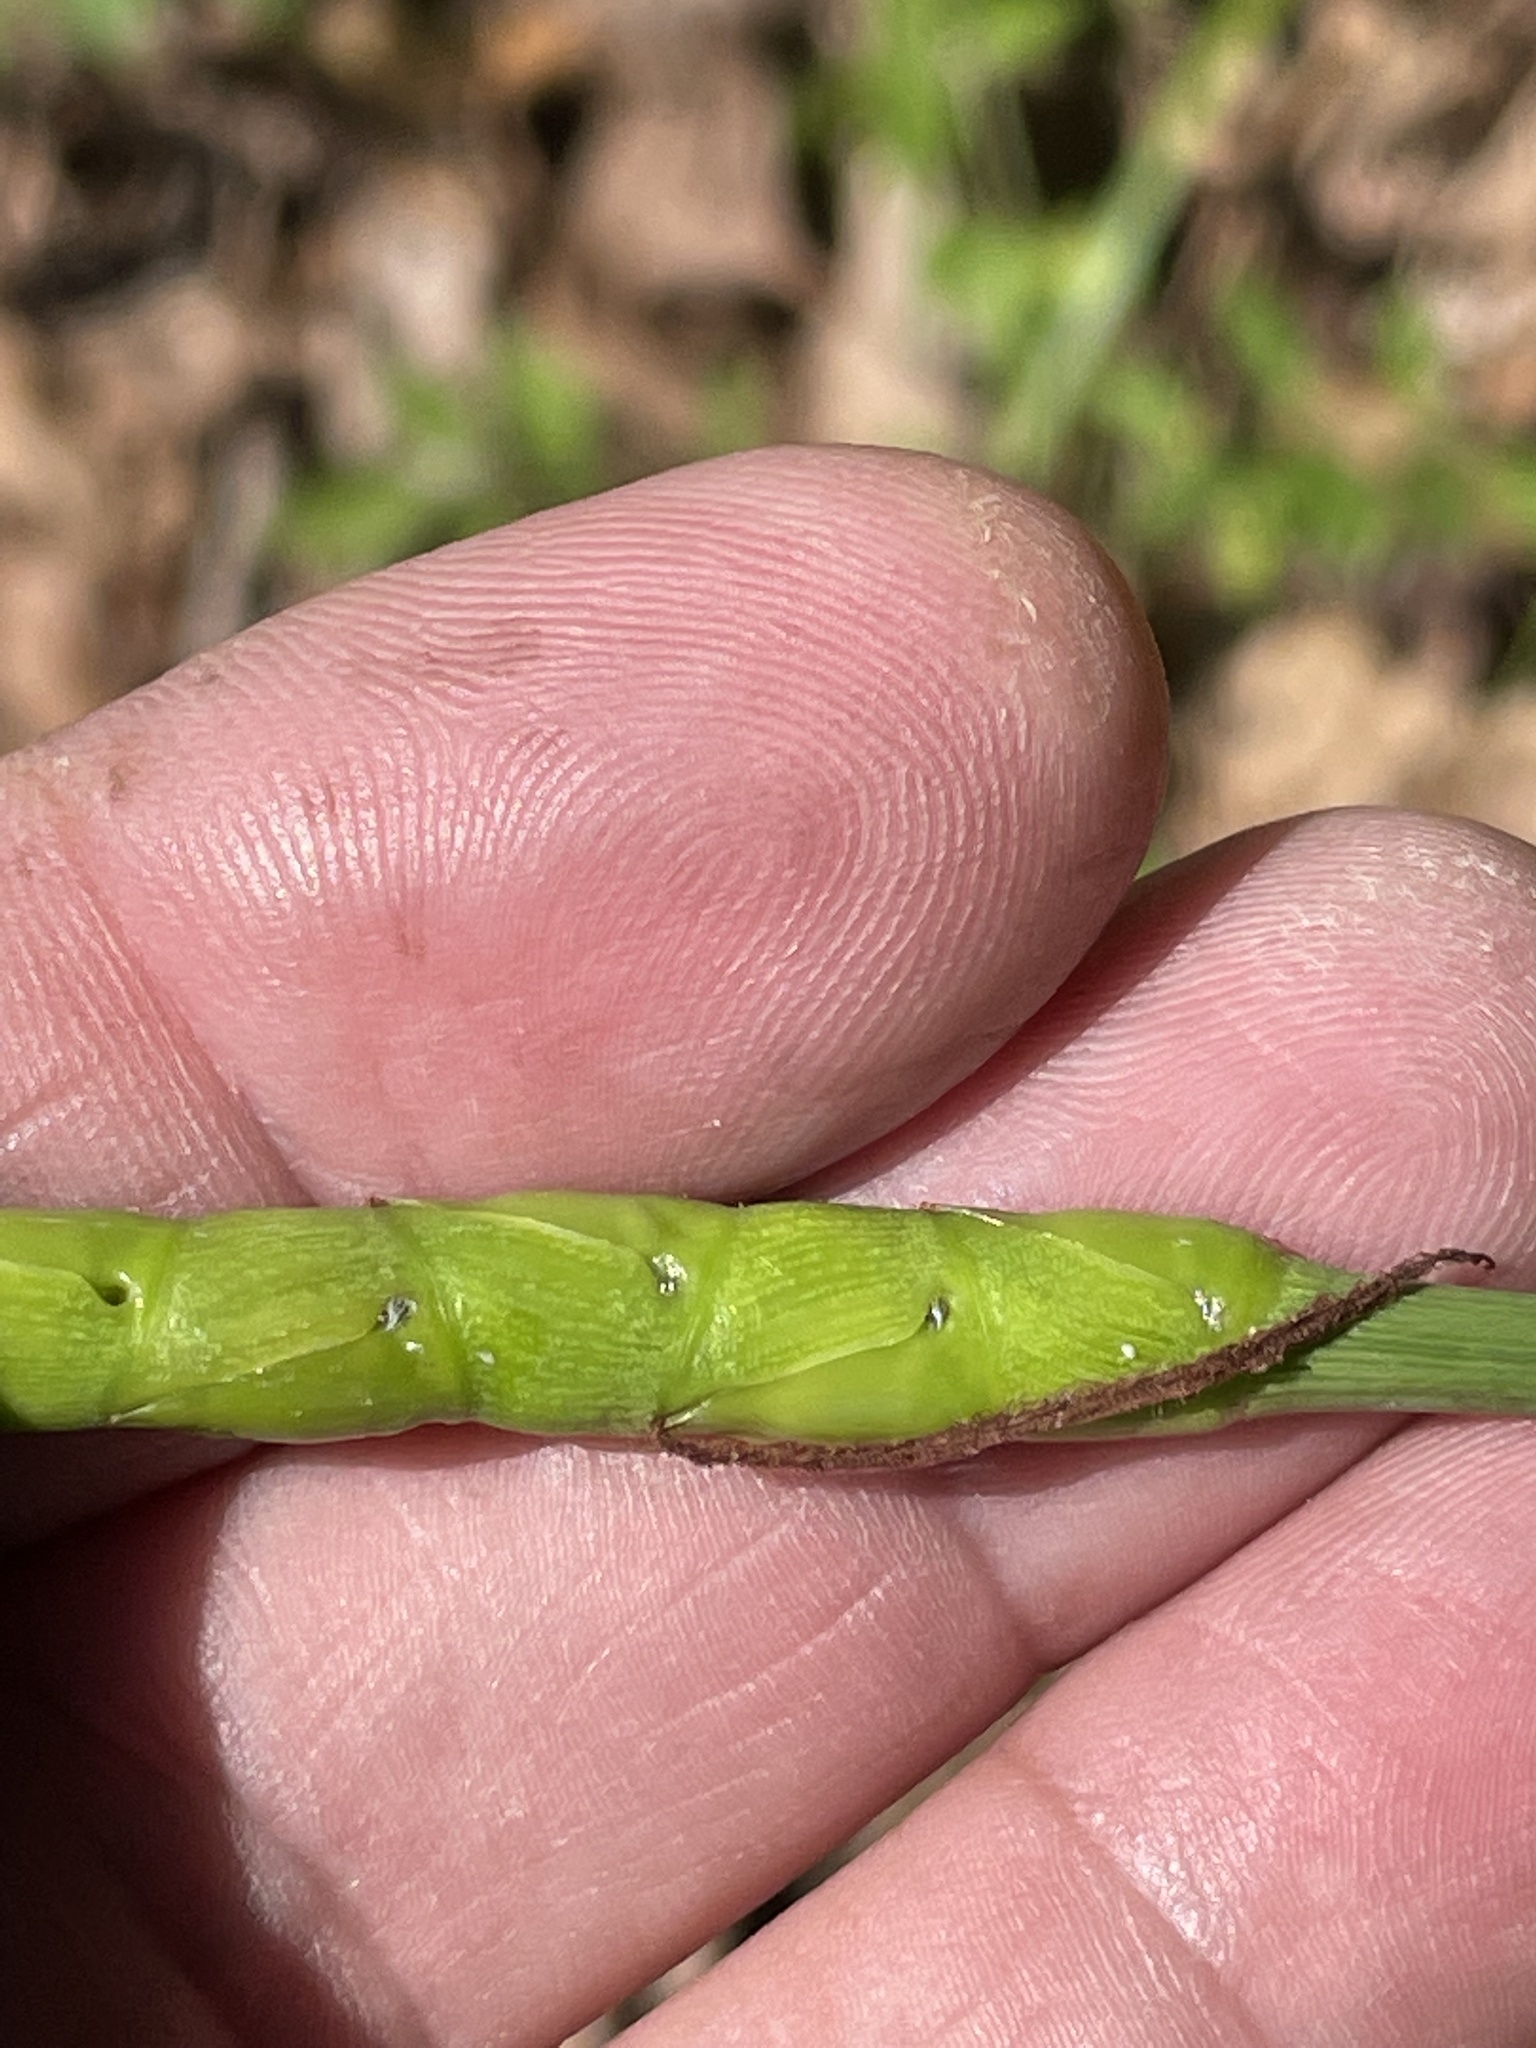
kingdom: Plantae
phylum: Tracheophyta
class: Liliopsida
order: Poales
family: Poaceae
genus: Tripsacum
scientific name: Tripsacum dactyloides
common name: Buffalo-grass
